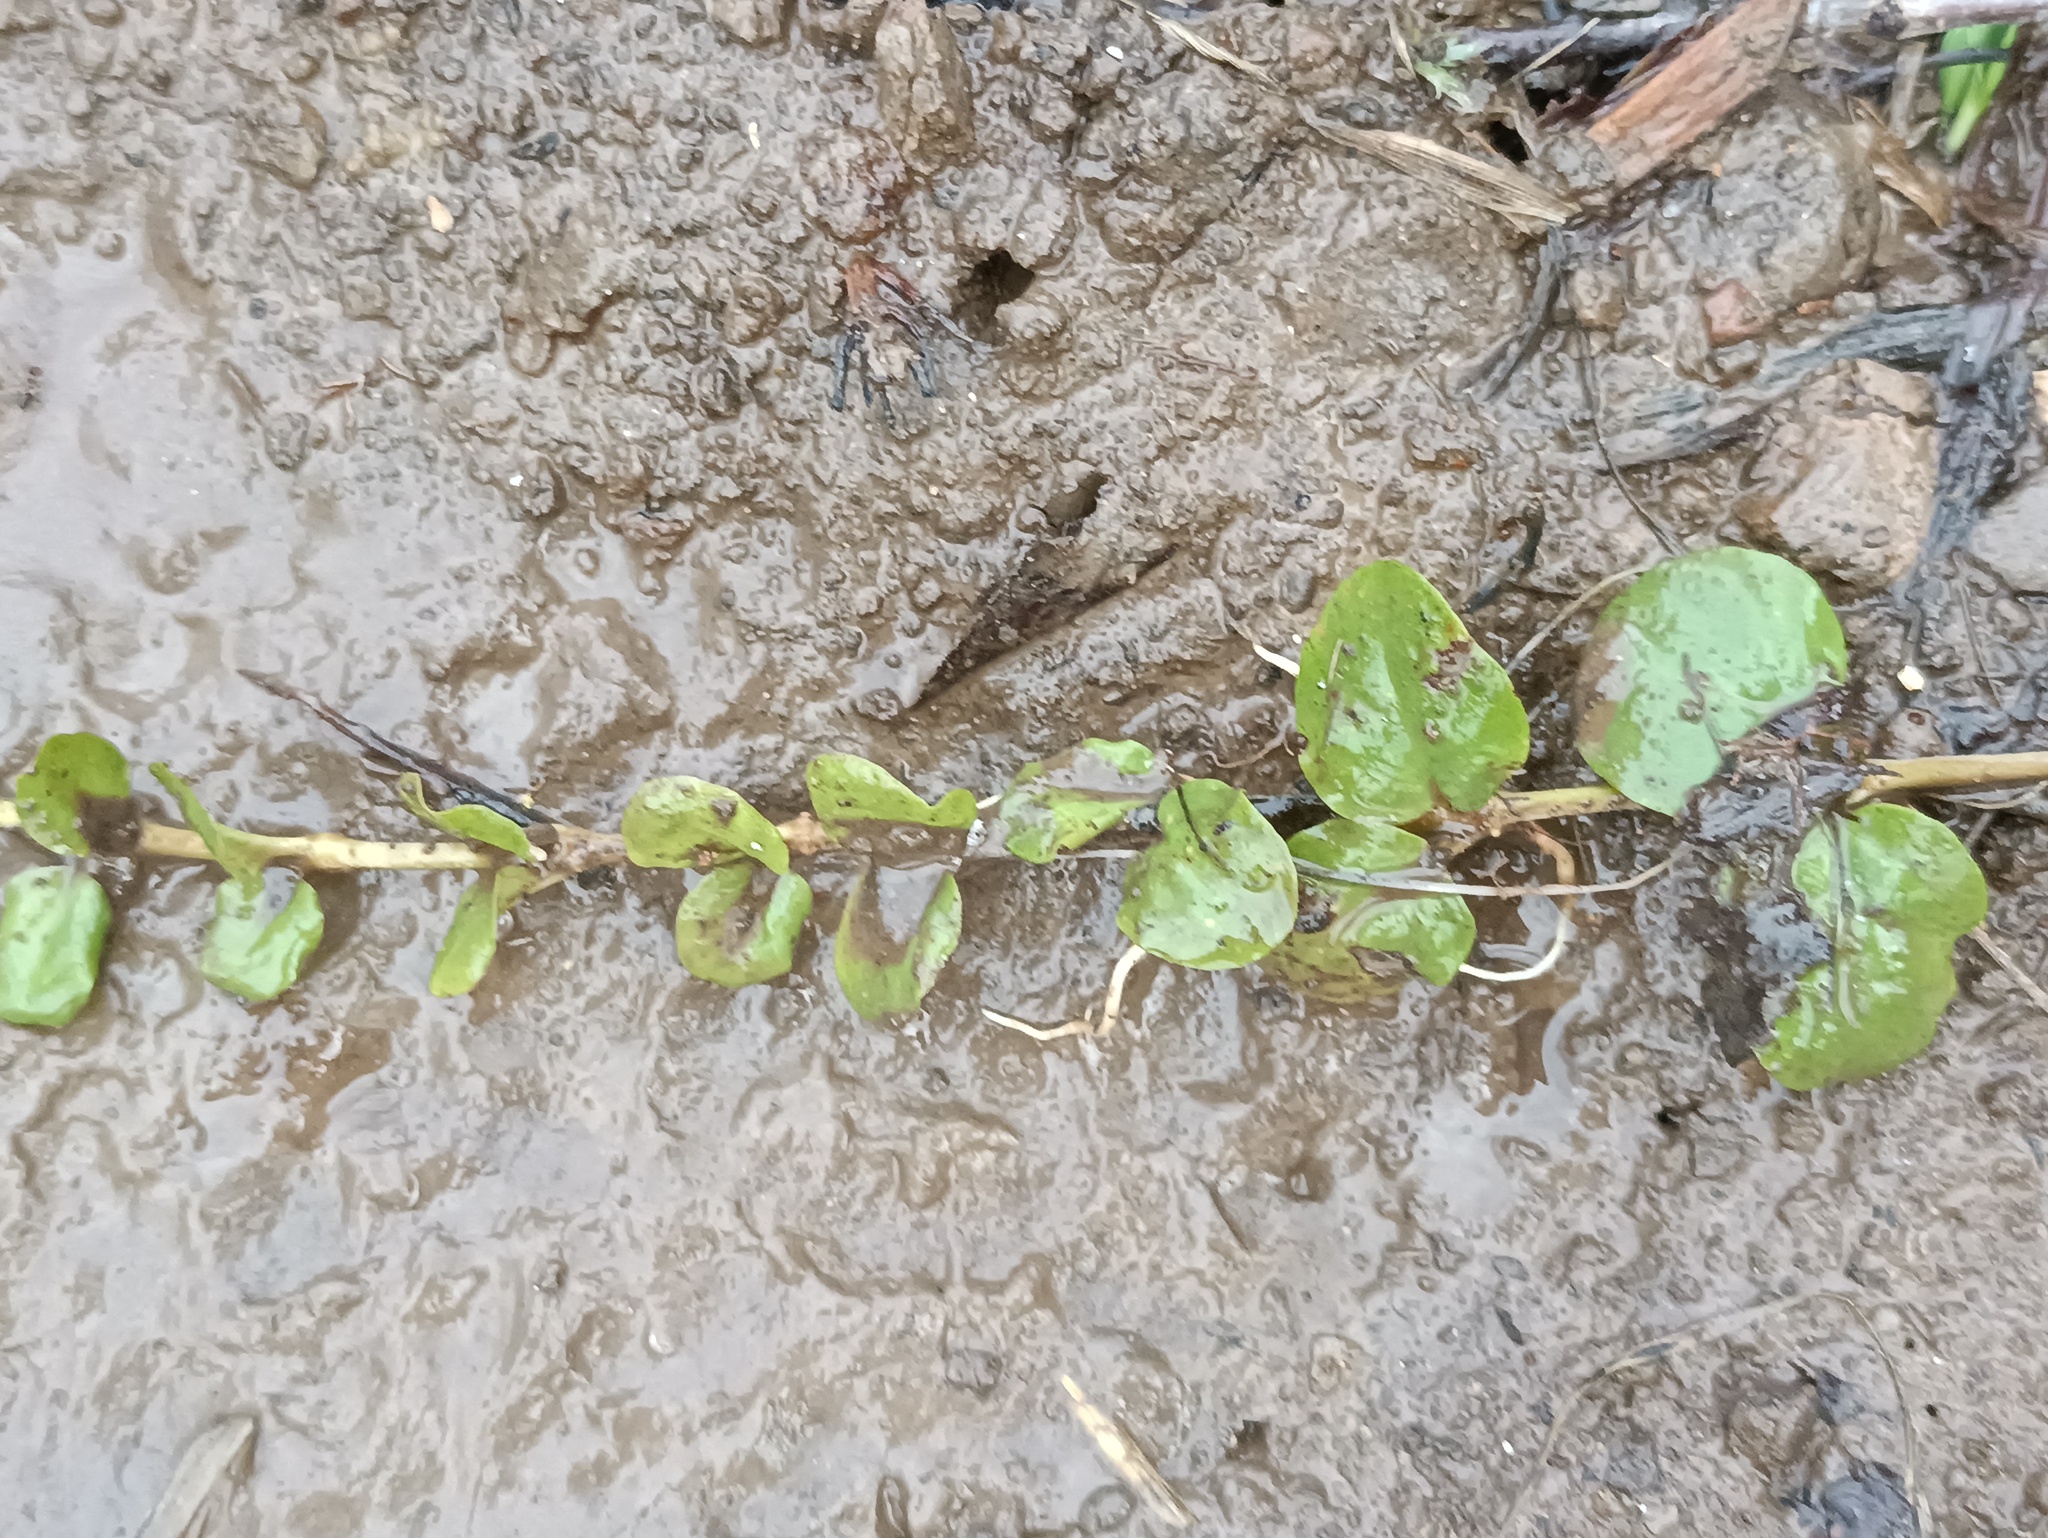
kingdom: Plantae
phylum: Tracheophyta
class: Magnoliopsida
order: Ericales
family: Primulaceae
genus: Lysimachia
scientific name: Lysimachia nummularia
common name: Moneywort
